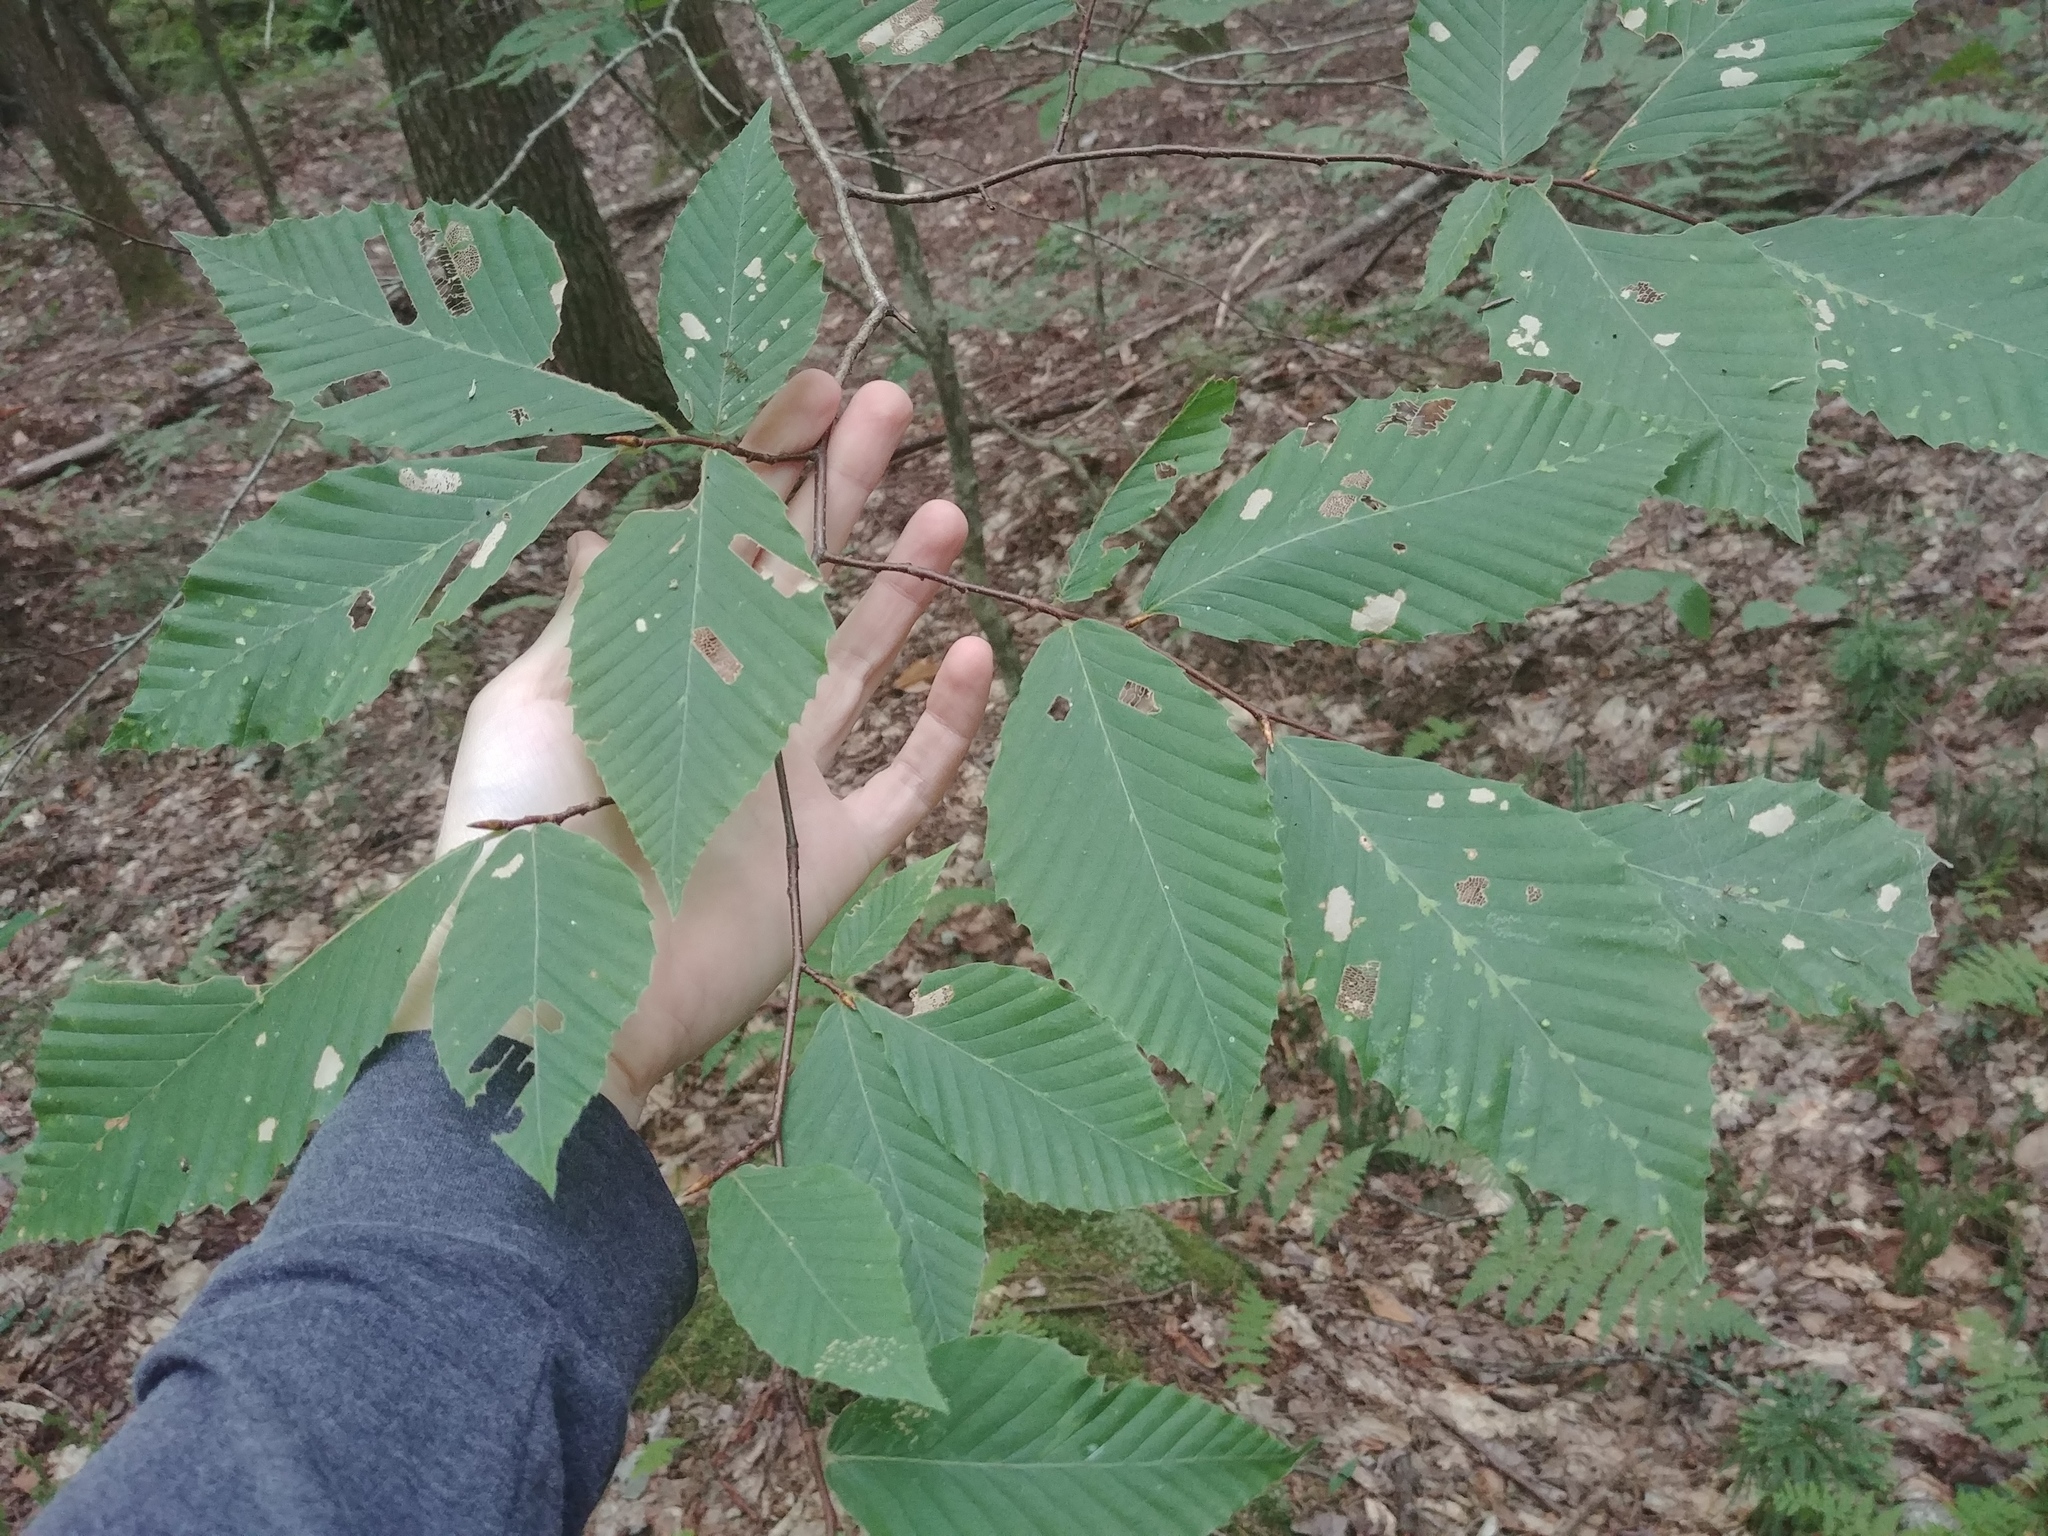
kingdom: Plantae
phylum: Tracheophyta
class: Magnoliopsida
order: Fagales
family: Fagaceae
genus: Fagus
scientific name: Fagus grandifolia
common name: American beech
